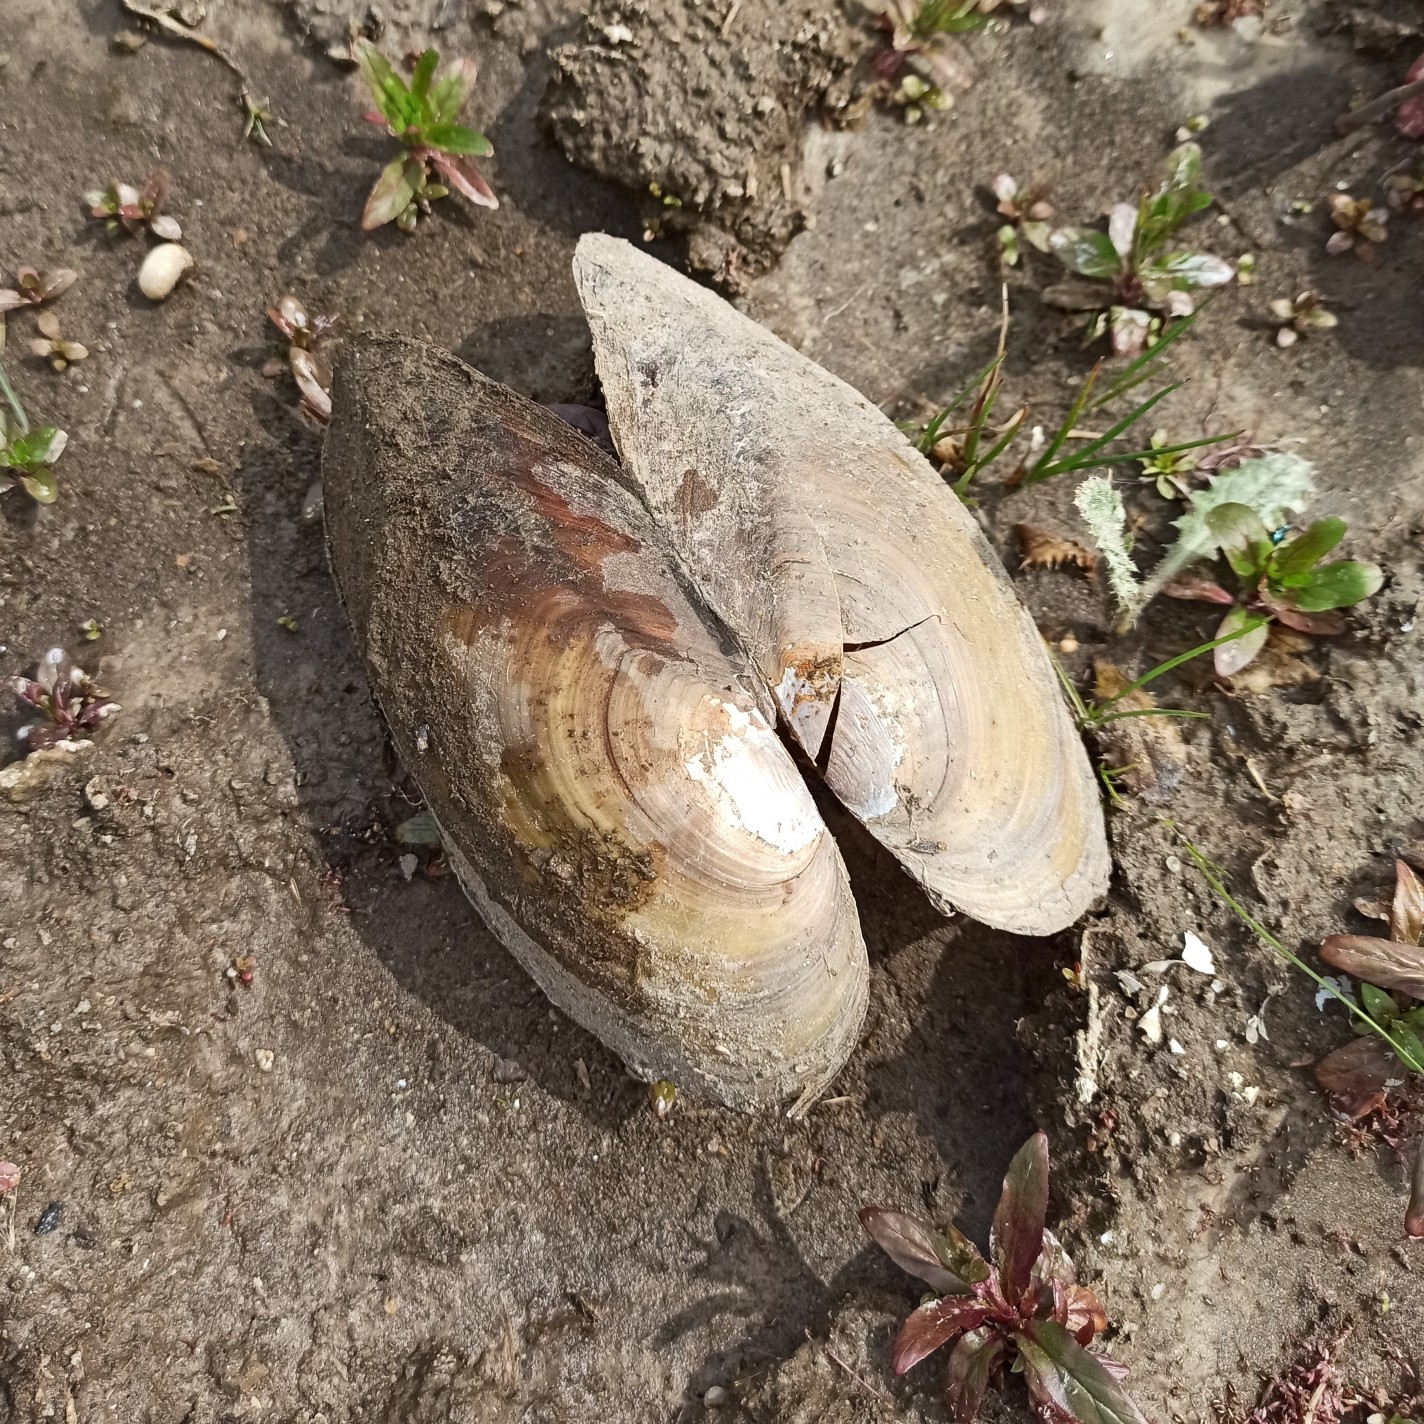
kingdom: Animalia
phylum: Mollusca
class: Bivalvia
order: Unionida
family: Unionidae
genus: Anodonta
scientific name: Anodonta cygnea
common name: Swan mussel
